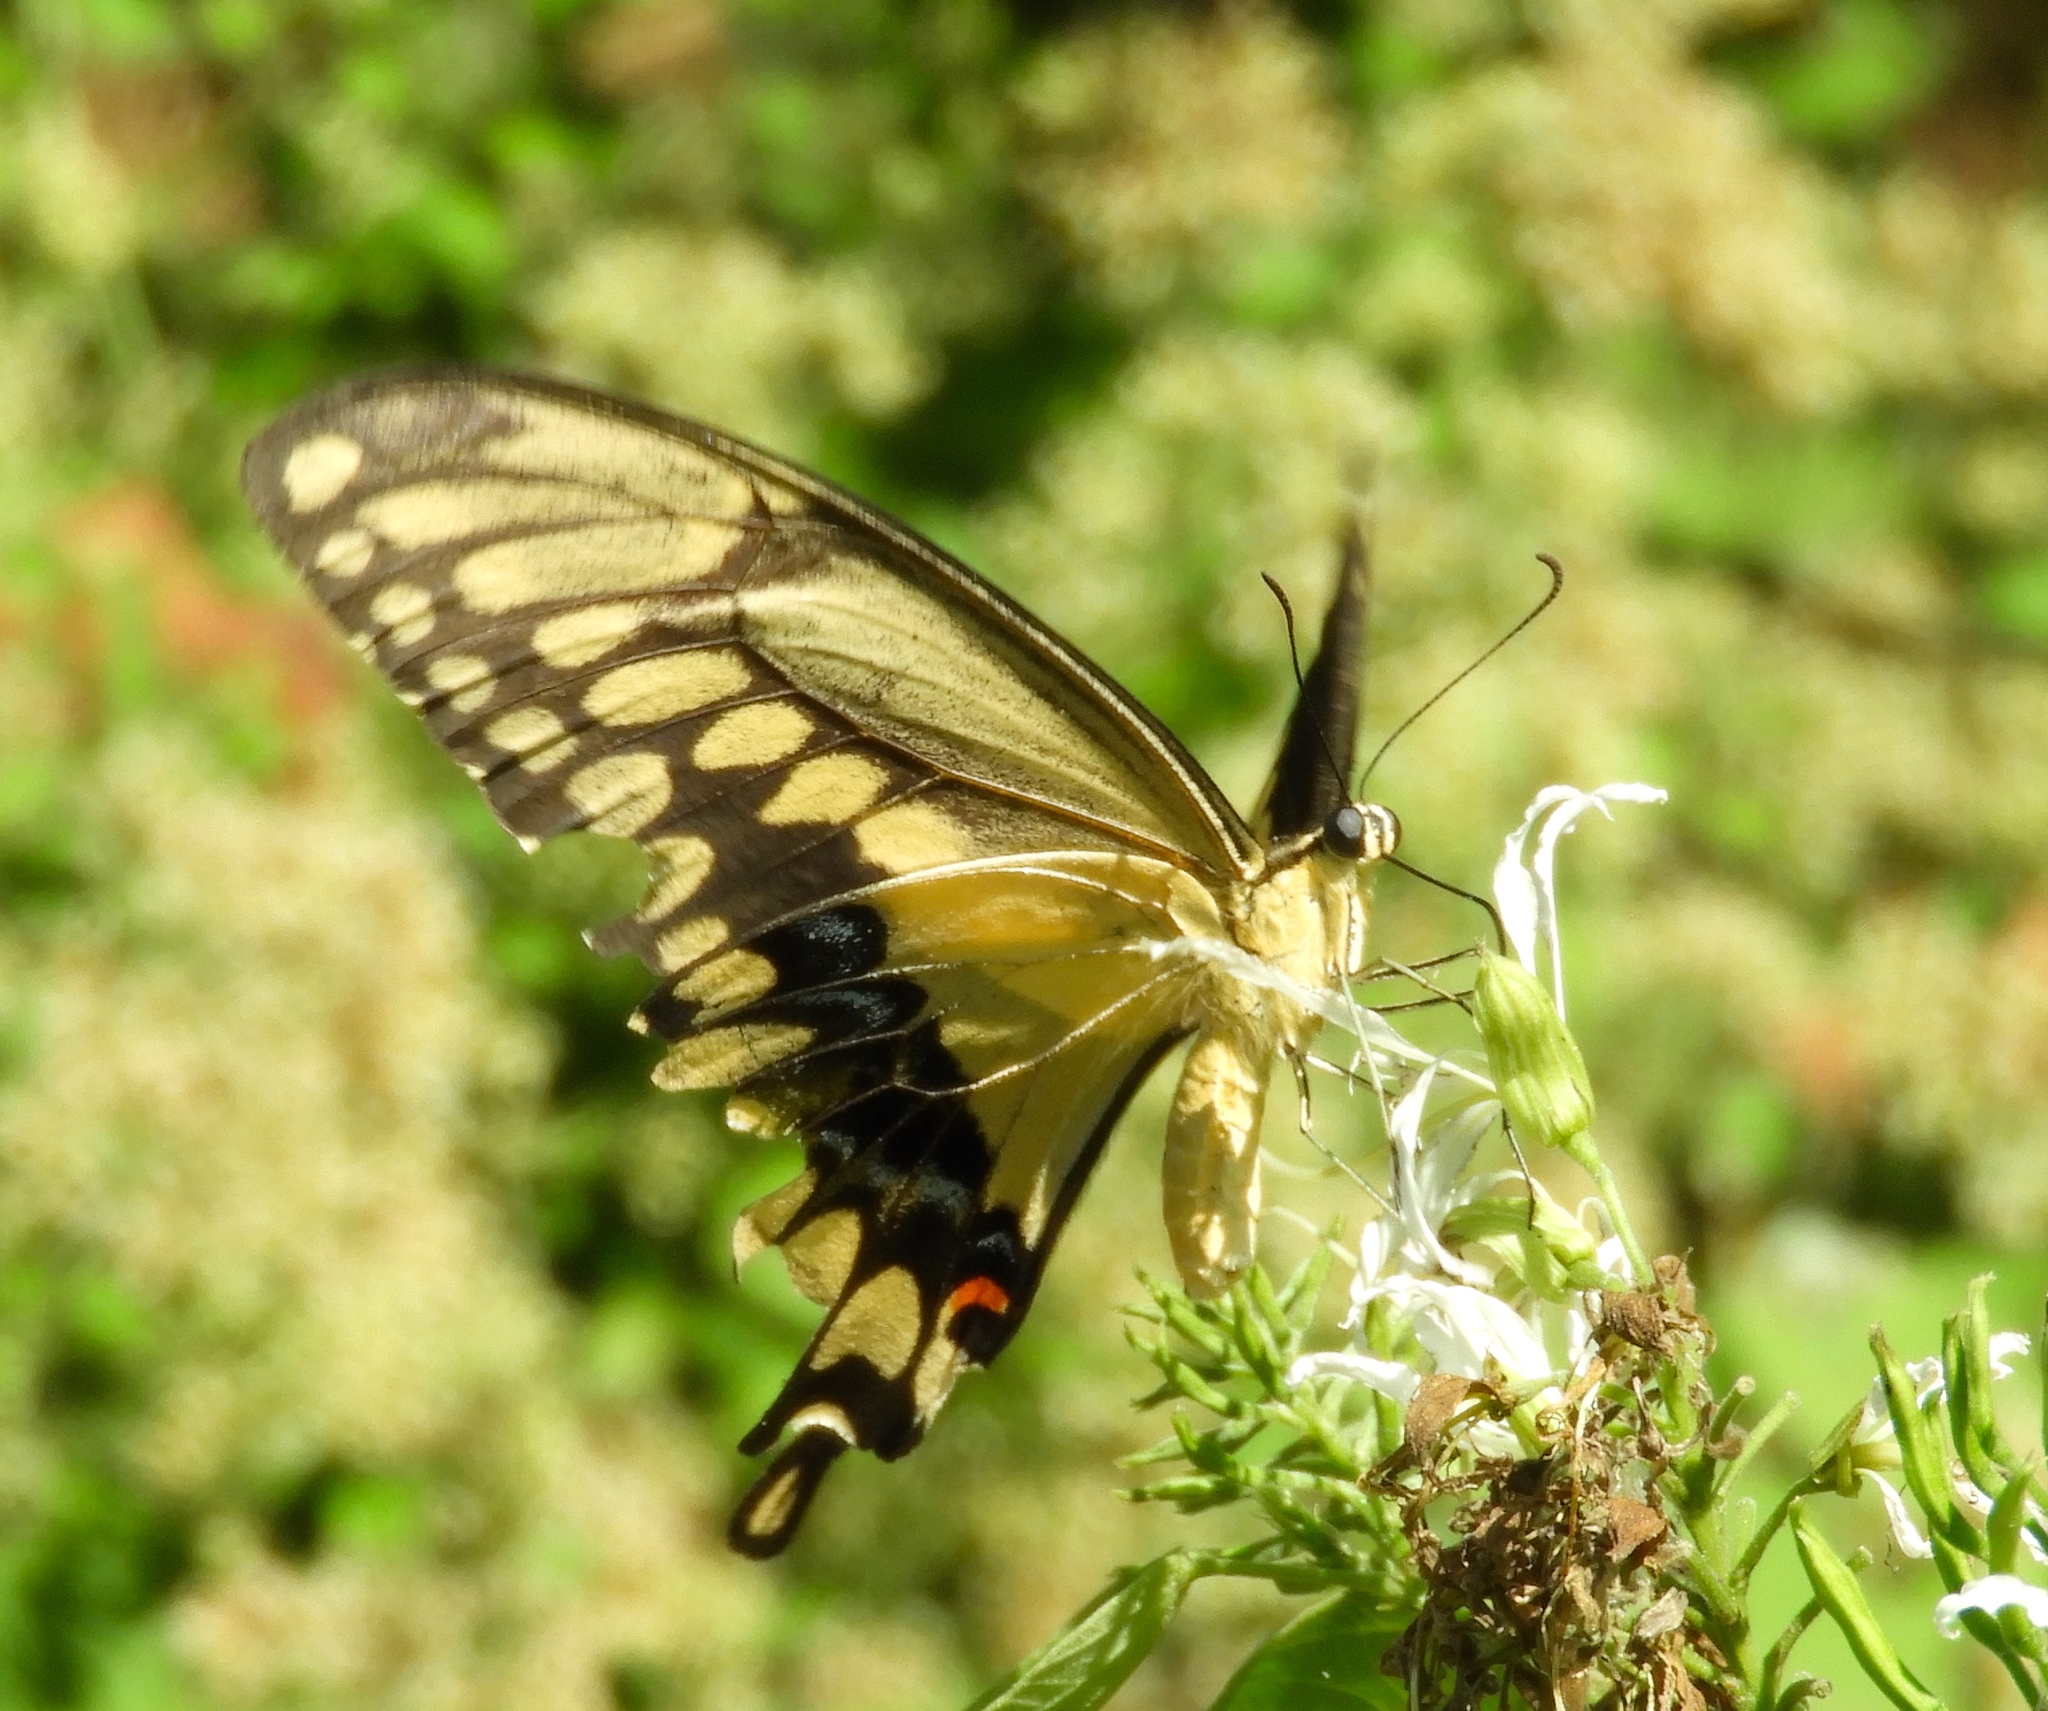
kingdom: Animalia
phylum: Arthropoda
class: Insecta
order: Lepidoptera
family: Papilionidae
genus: Papilio
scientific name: Papilio rumiko
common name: Western giant swallowtail
